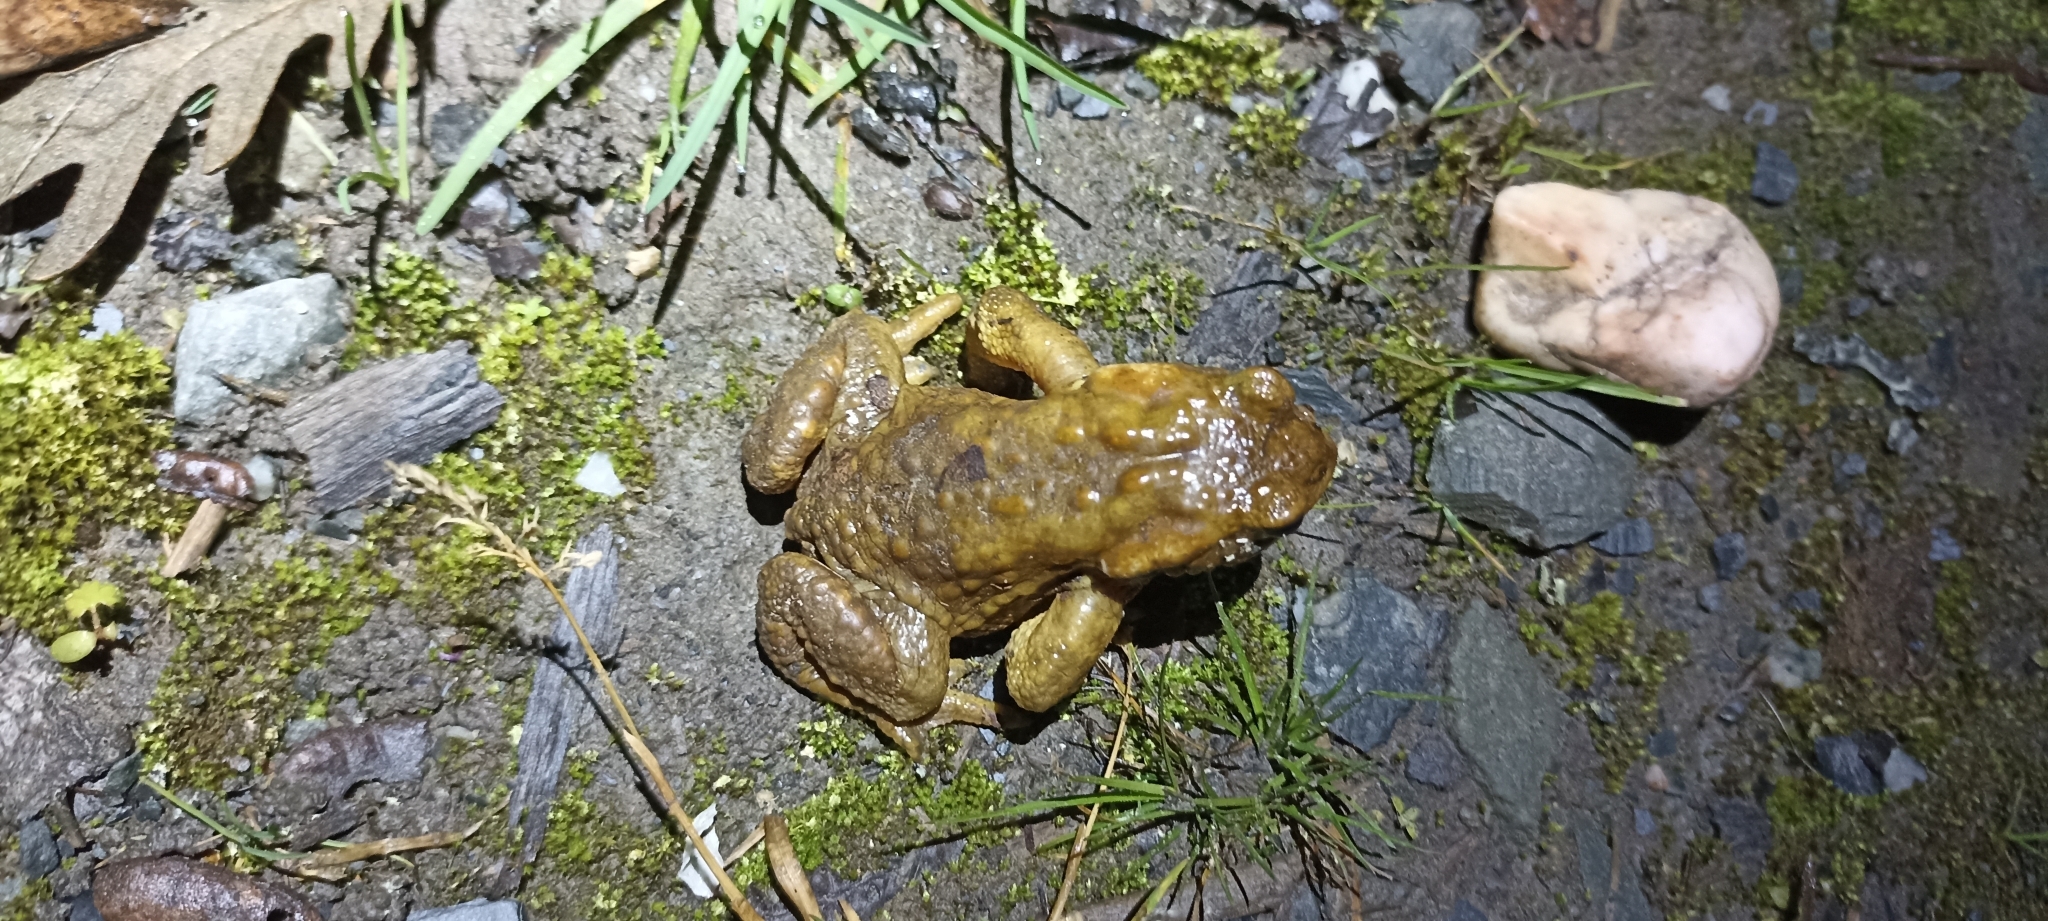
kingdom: Animalia
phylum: Chordata
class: Amphibia
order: Anura
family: Bufonidae
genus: Bufo
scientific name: Bufo spinosus
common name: Western common toad
